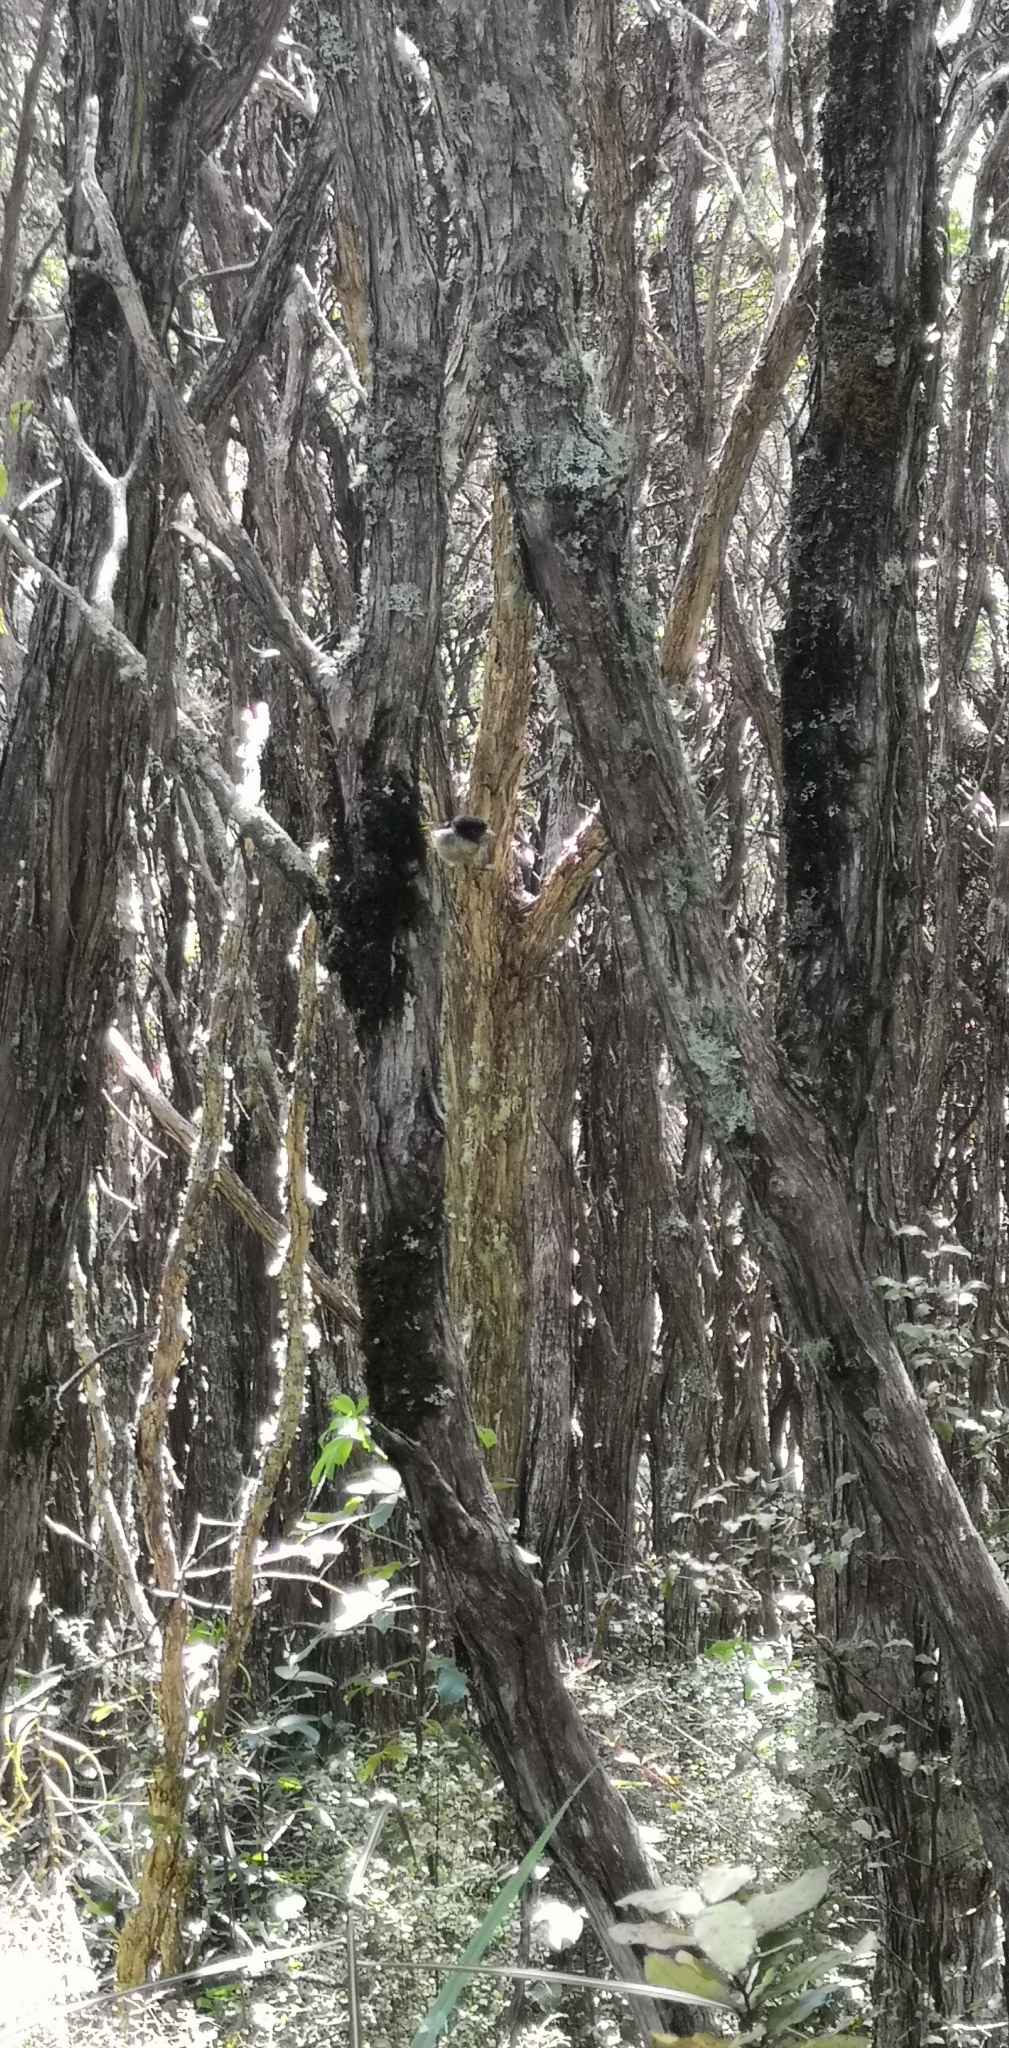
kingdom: Animalia
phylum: Chordata
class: Aves
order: Passeriformes
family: Petroicidae
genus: Petroica
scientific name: Petroica macrocephala
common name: Tomtit
